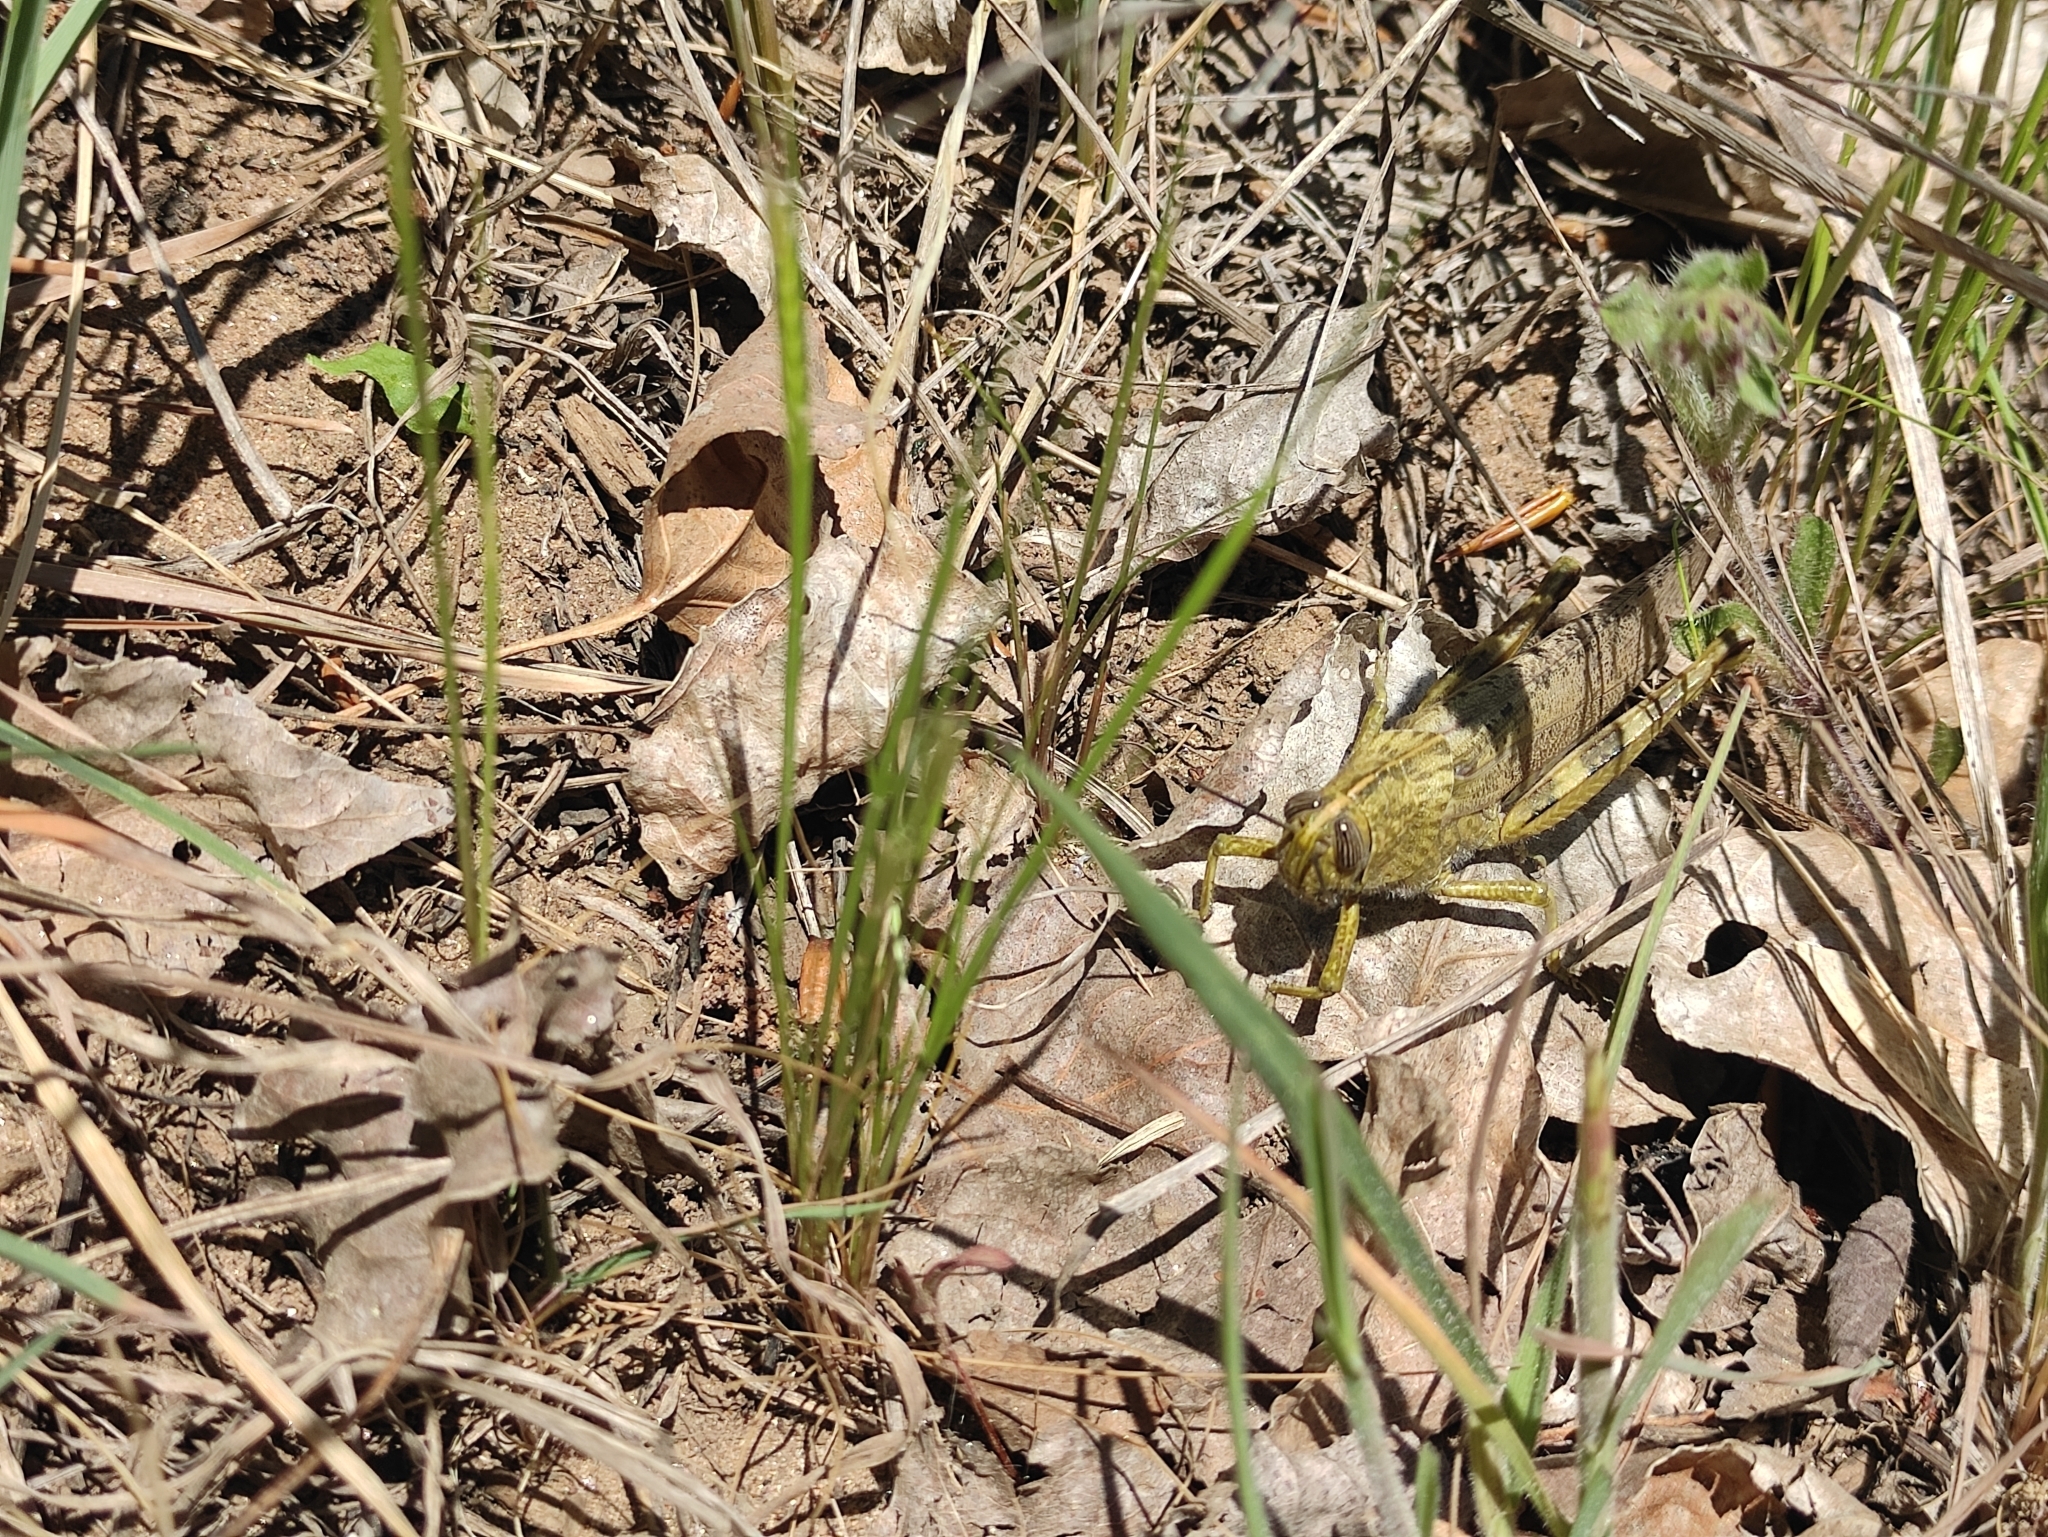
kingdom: Animalia
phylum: Arthropoda
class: Insecta
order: Orthoptera
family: Acrididae
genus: Anacridium
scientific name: Anacridium aegyptium
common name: Egyptian grasshopper
